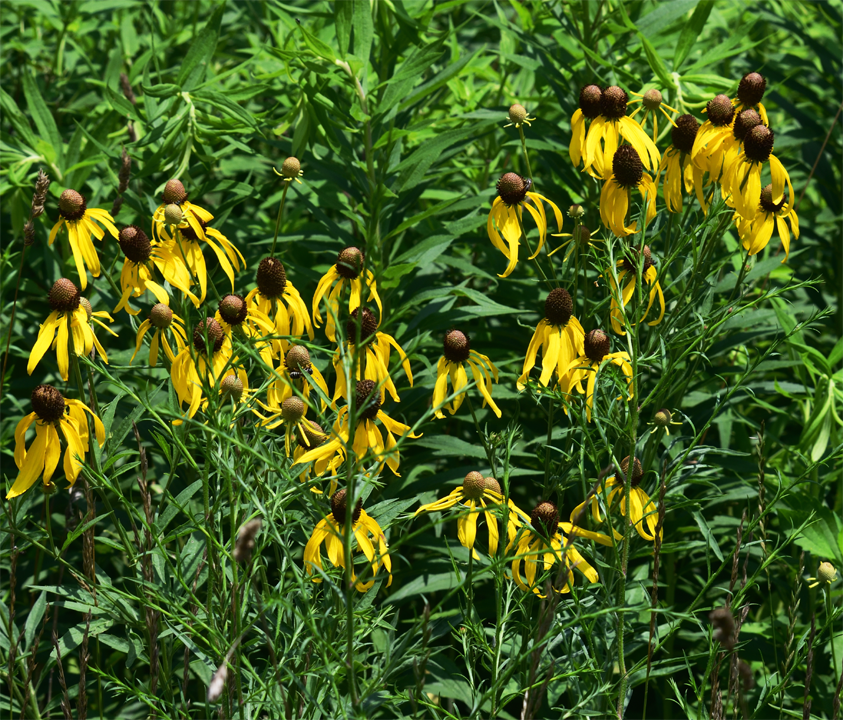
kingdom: Plantae
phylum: Tracheophyta
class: Magnoliopsida
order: Asterales
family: Asteraceae
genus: Ratibida
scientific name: Ratibida pinnata
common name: Drooping prairie-coneflower
